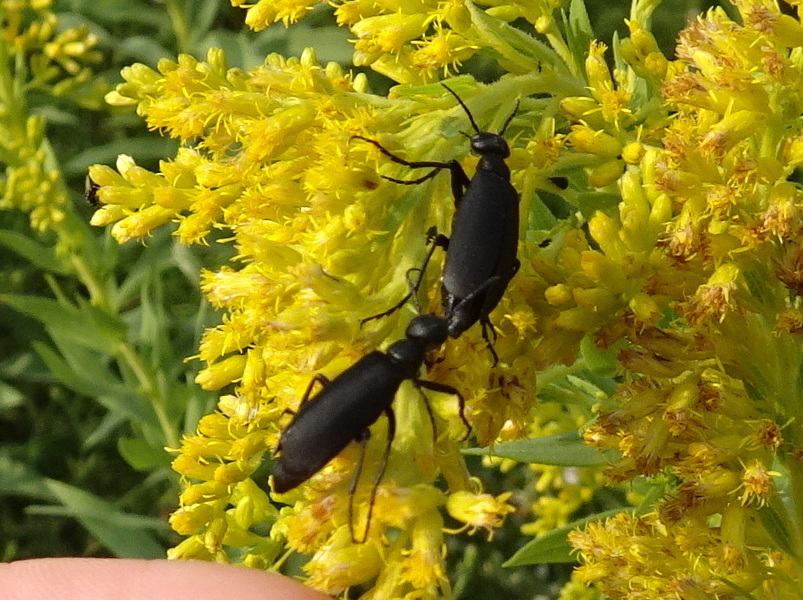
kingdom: Animalia
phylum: Arthropoda
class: Insecta
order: Coleoptera
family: Meloidae
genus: Epicauta
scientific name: Epicauta pensylvanica
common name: Black blister beetle
